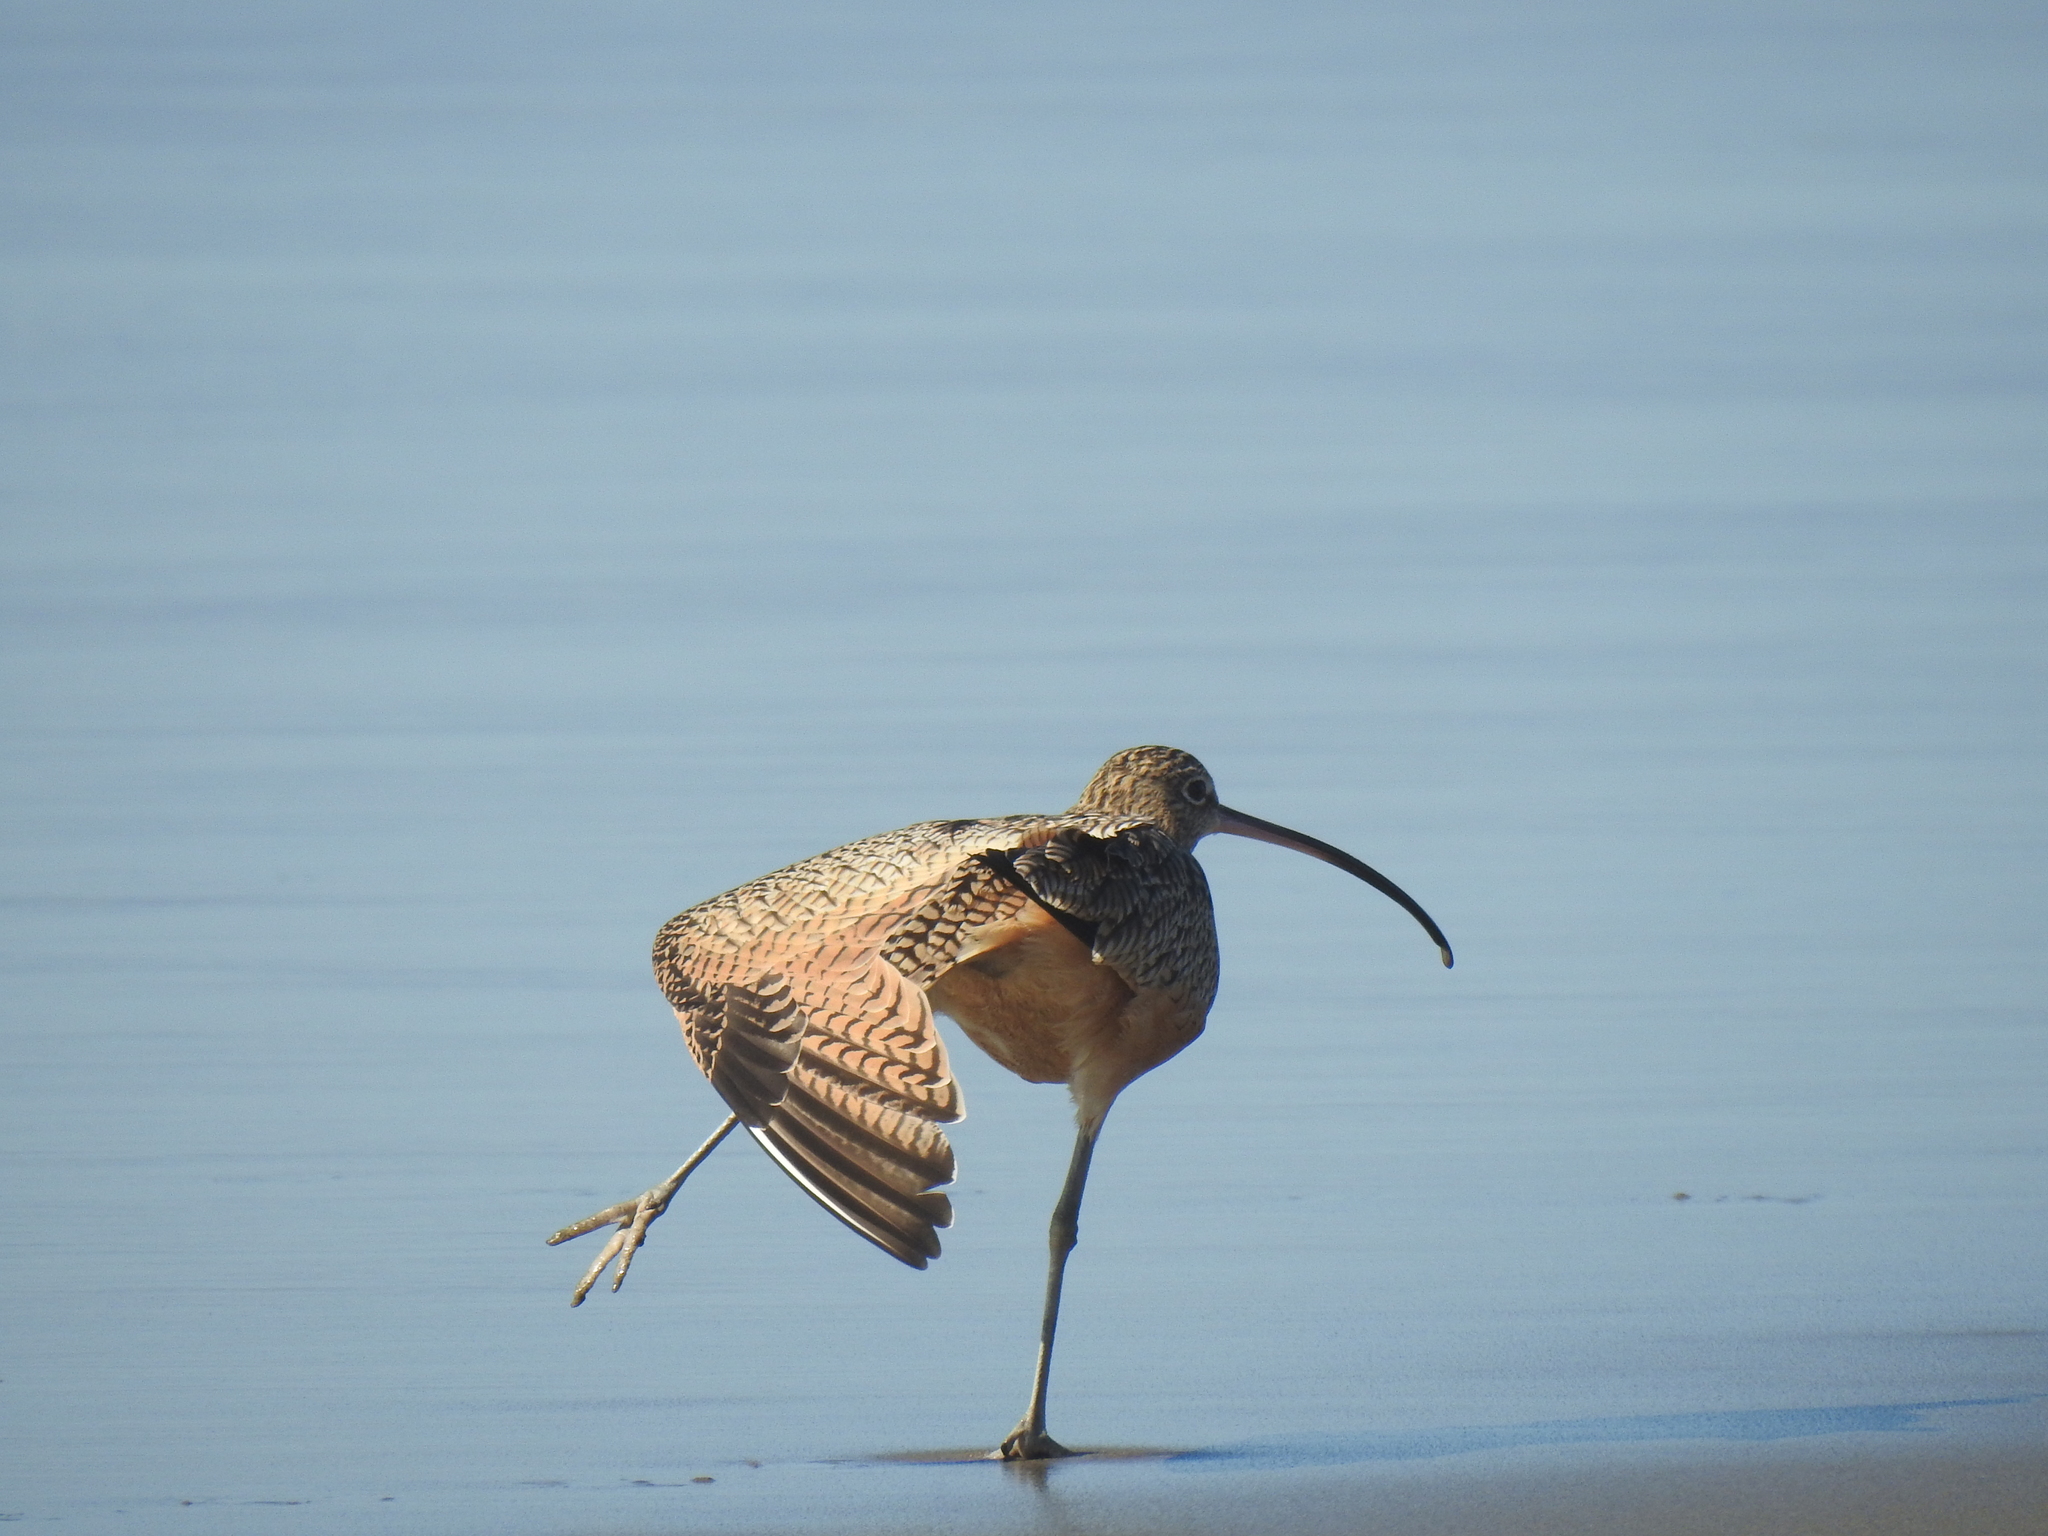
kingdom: Animalia
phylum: Chordata
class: Aves
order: Charadriiformes
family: Scolopacidae
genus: Numenius
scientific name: Numenius americanus
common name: Long-billed curlew
